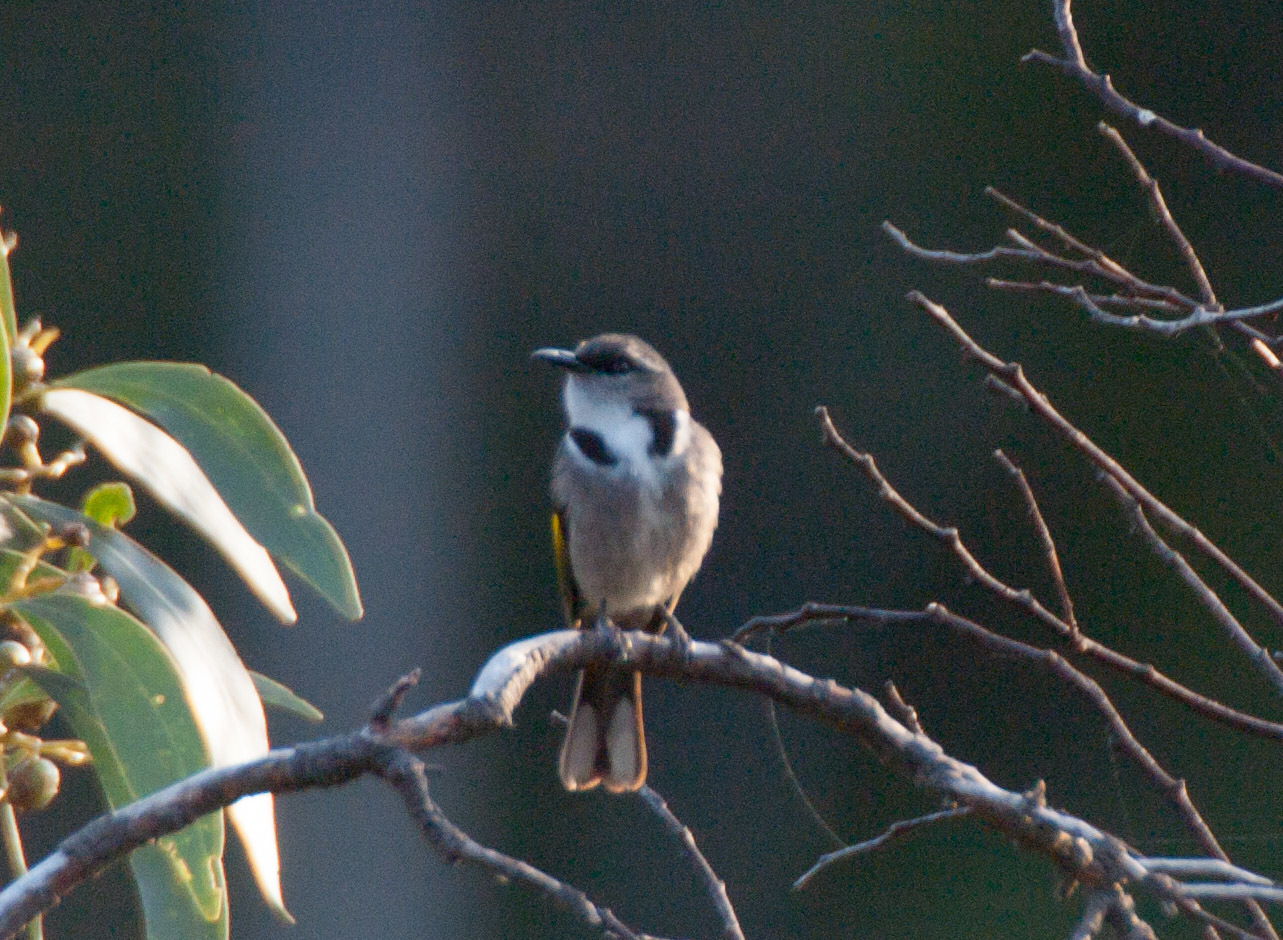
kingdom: Animalia
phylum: Chordata
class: Aves
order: Passeriformes
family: Meliphagidae
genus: Phylidonyris
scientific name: Phylidonyris pyrrhopterus
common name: Crescent honeyeater
